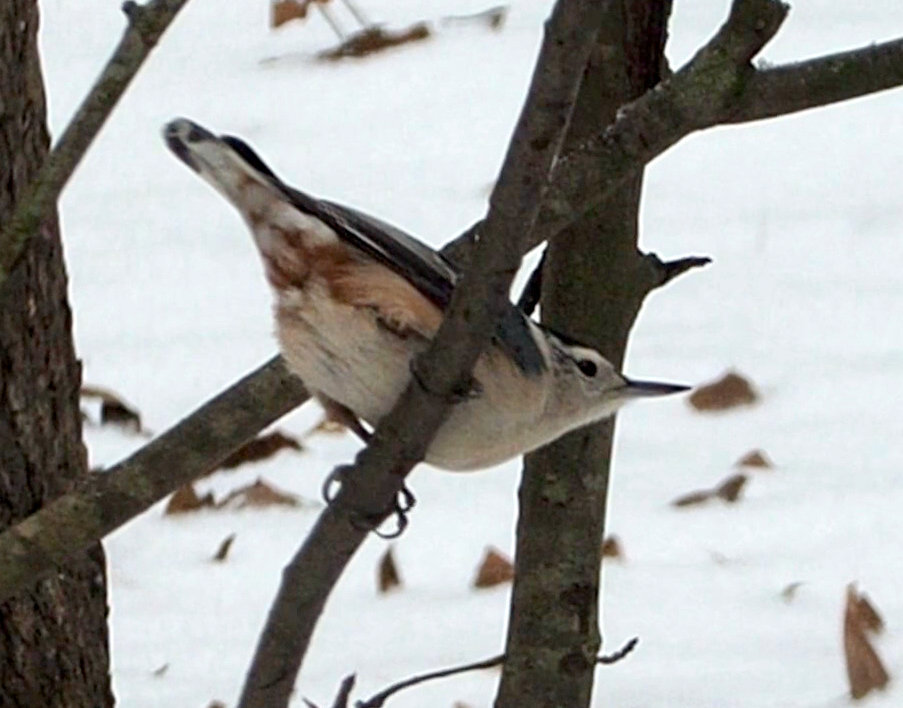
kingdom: Animalia
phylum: Chordata
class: Aves
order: Passeriformes
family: Sittidae
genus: Sitta
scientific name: Sitta carolinensis
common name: White-breasted nuthatch
